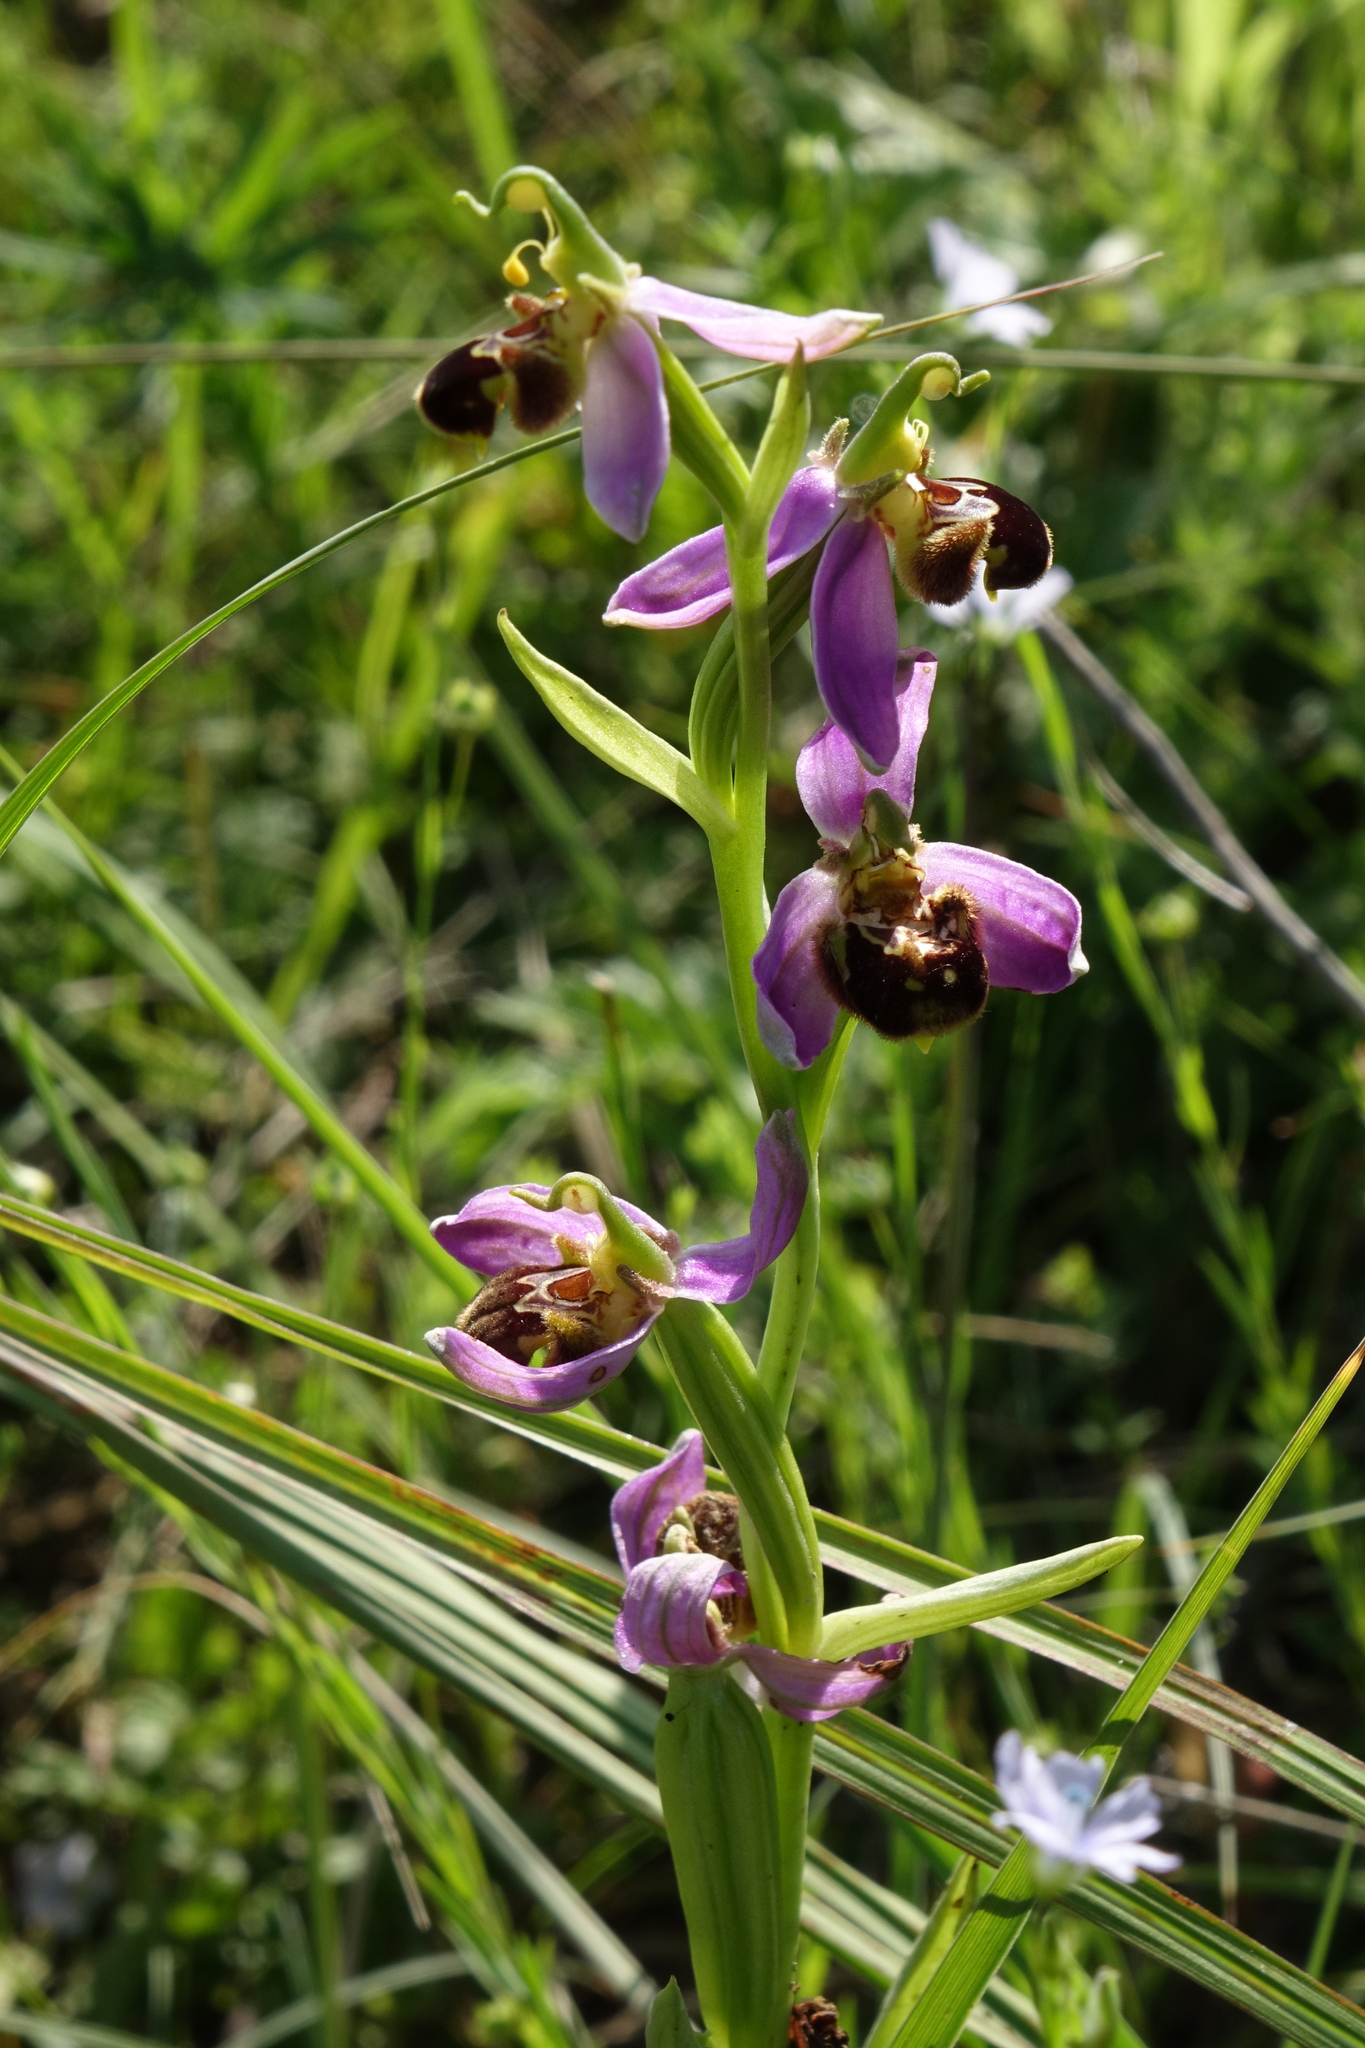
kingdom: Plantae
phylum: Tracheophyta
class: Liliopsida
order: Asparagales
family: Orchidaceae
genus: Ophrys
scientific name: Ophrys apifera
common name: Bee orchid
